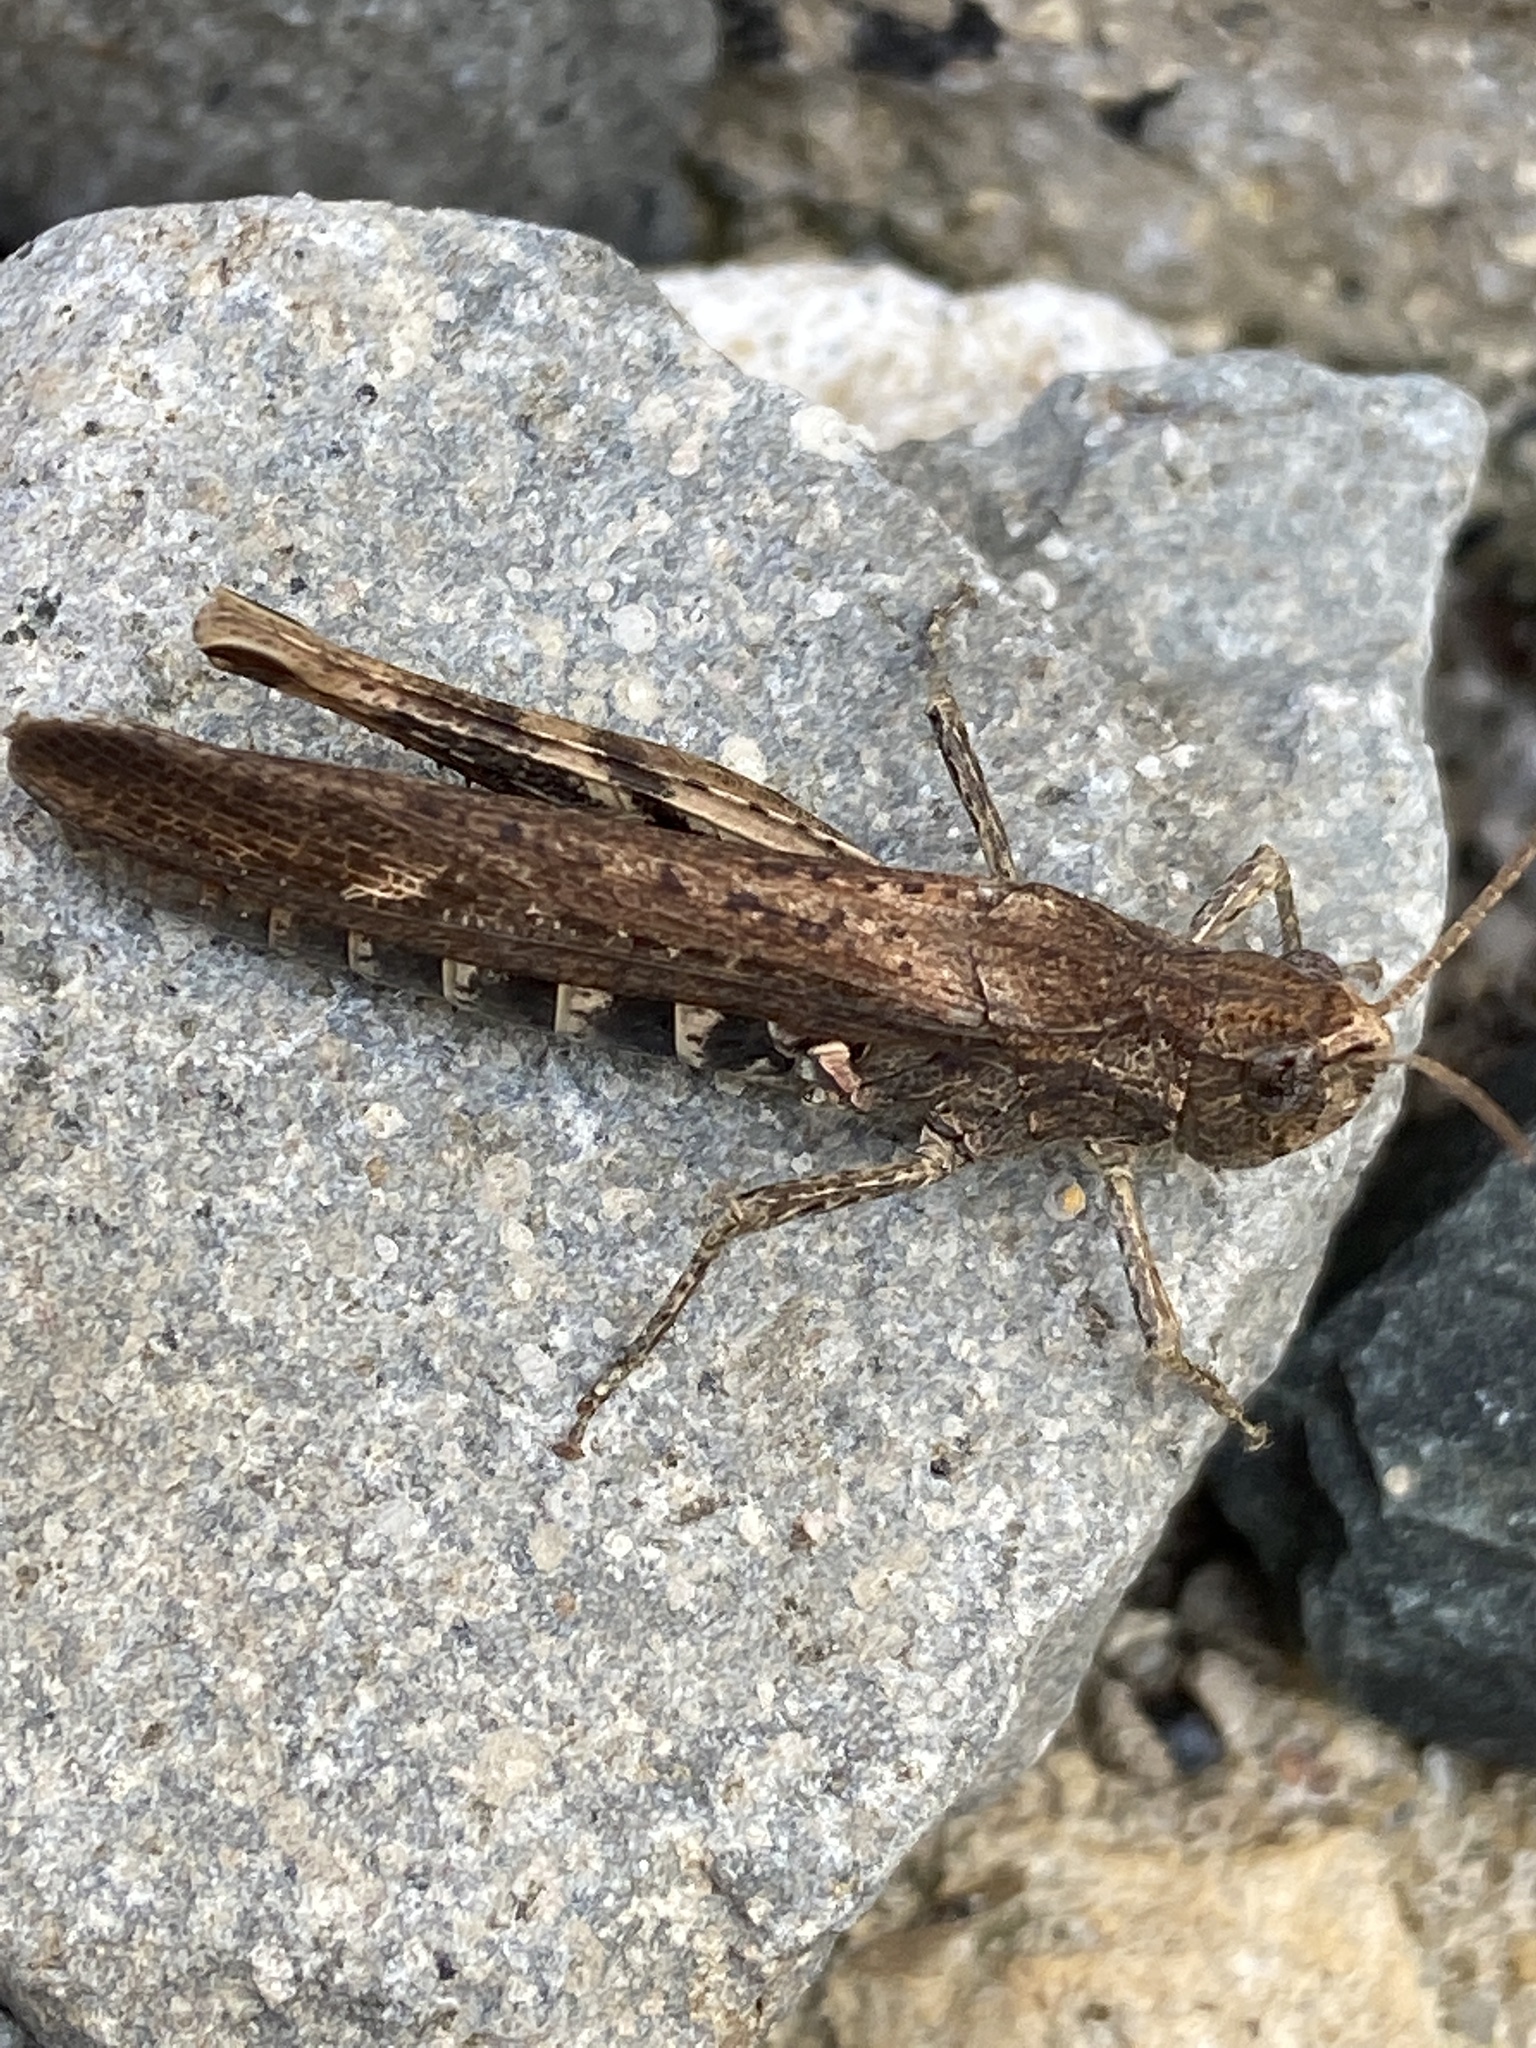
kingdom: Animalia
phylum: Arthropoda
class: Insecta
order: Orthoptera
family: Acrididae
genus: Chorthippus
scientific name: Chorthippus brunneus
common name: Field grasshopper
